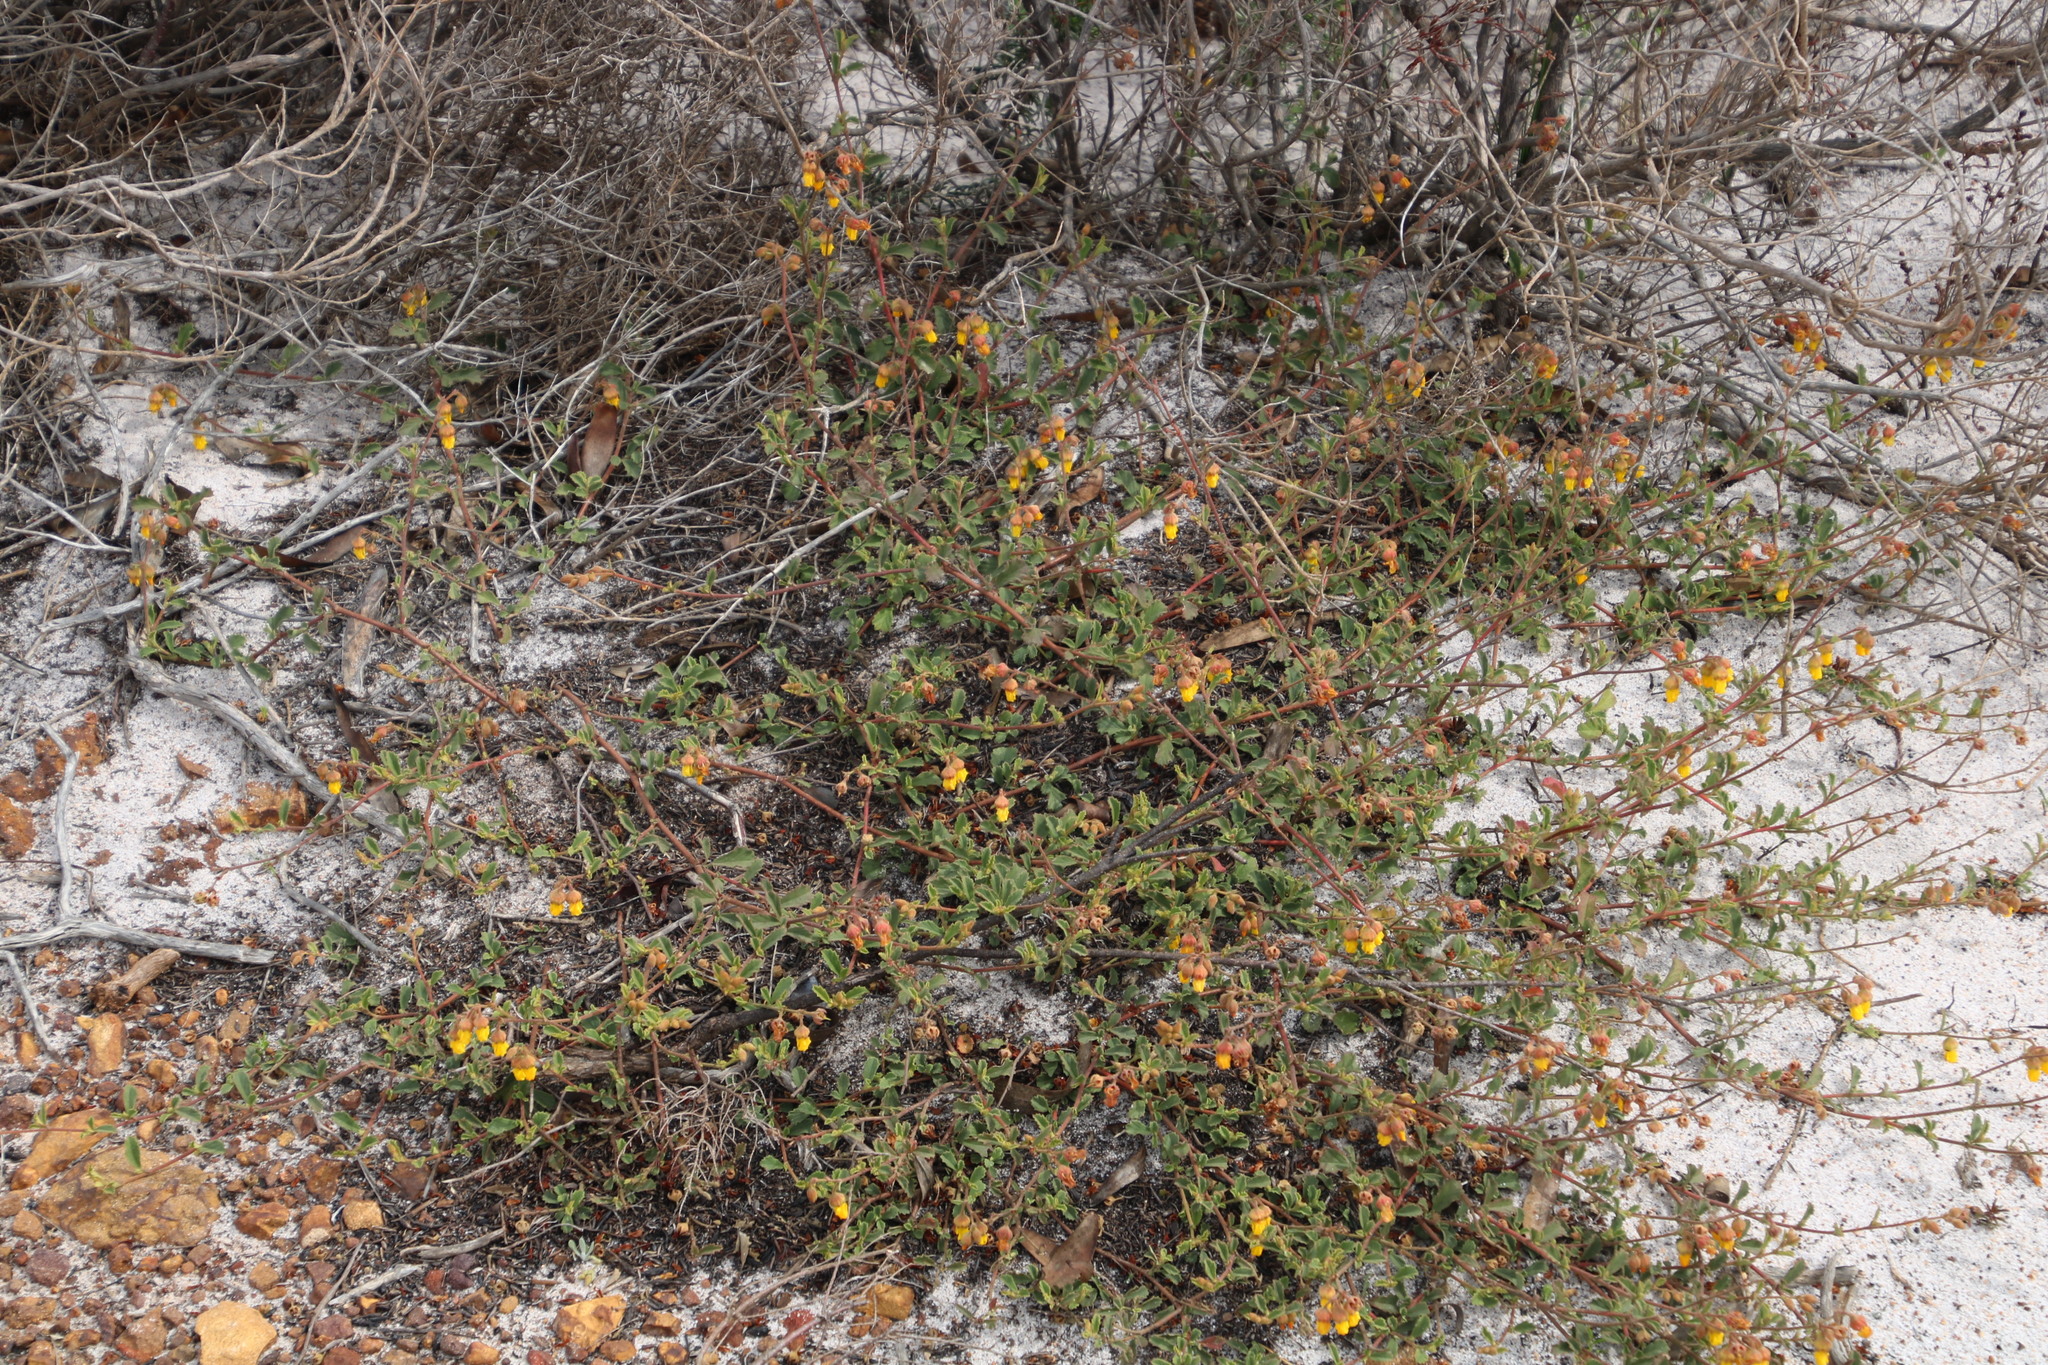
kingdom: Plantae
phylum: Tracheophyta
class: Magnoliopsida
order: Malvales
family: Malvaceae
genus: Hermannia
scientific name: Hermannia multiflora
